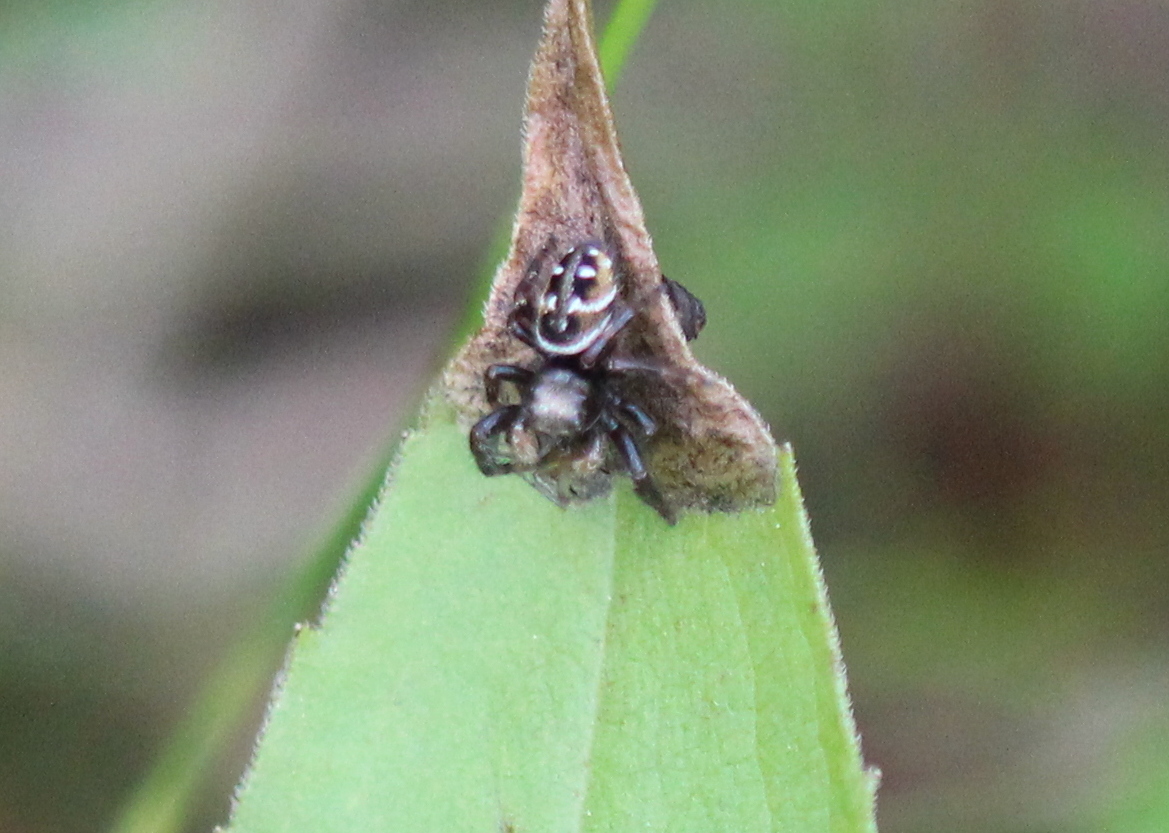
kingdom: Animalia
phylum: Arthropoda
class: Arachnida
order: Araneae
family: Salticidae
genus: Phidippus
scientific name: Phidippus clarus
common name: Brilliant jumping spider
